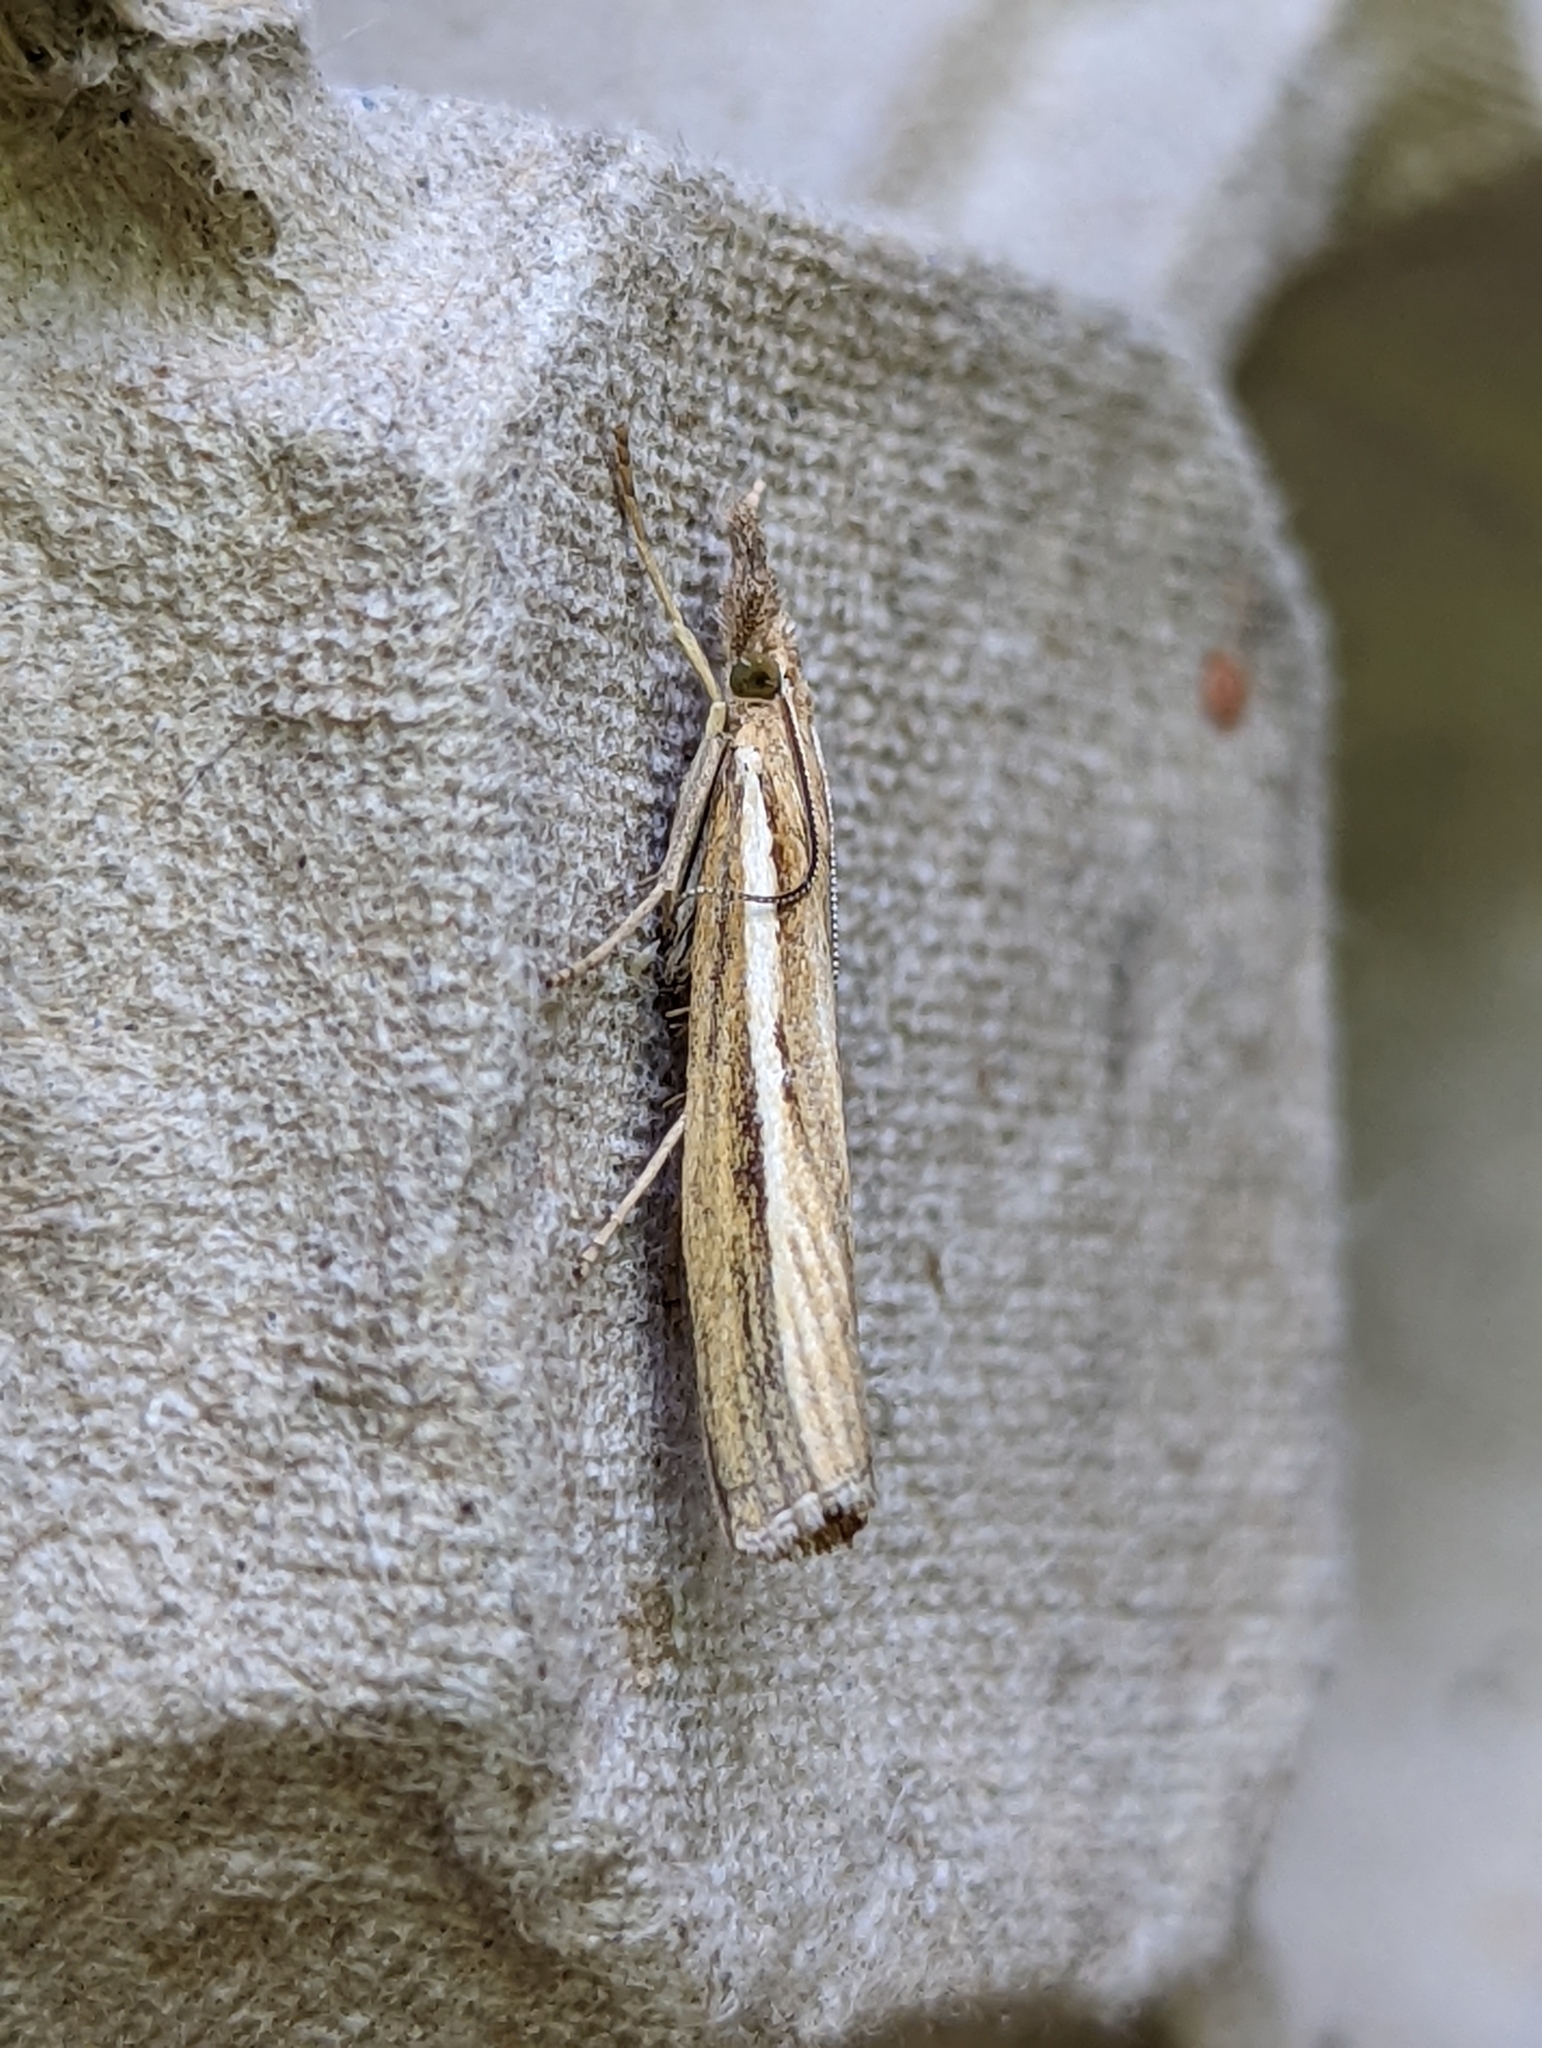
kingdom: Animalia
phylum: Arthropoda
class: Insecta
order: Lepidoptera
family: Crambidae
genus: Agriphila
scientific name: Agriphila tristellus
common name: Common grass-veneer
